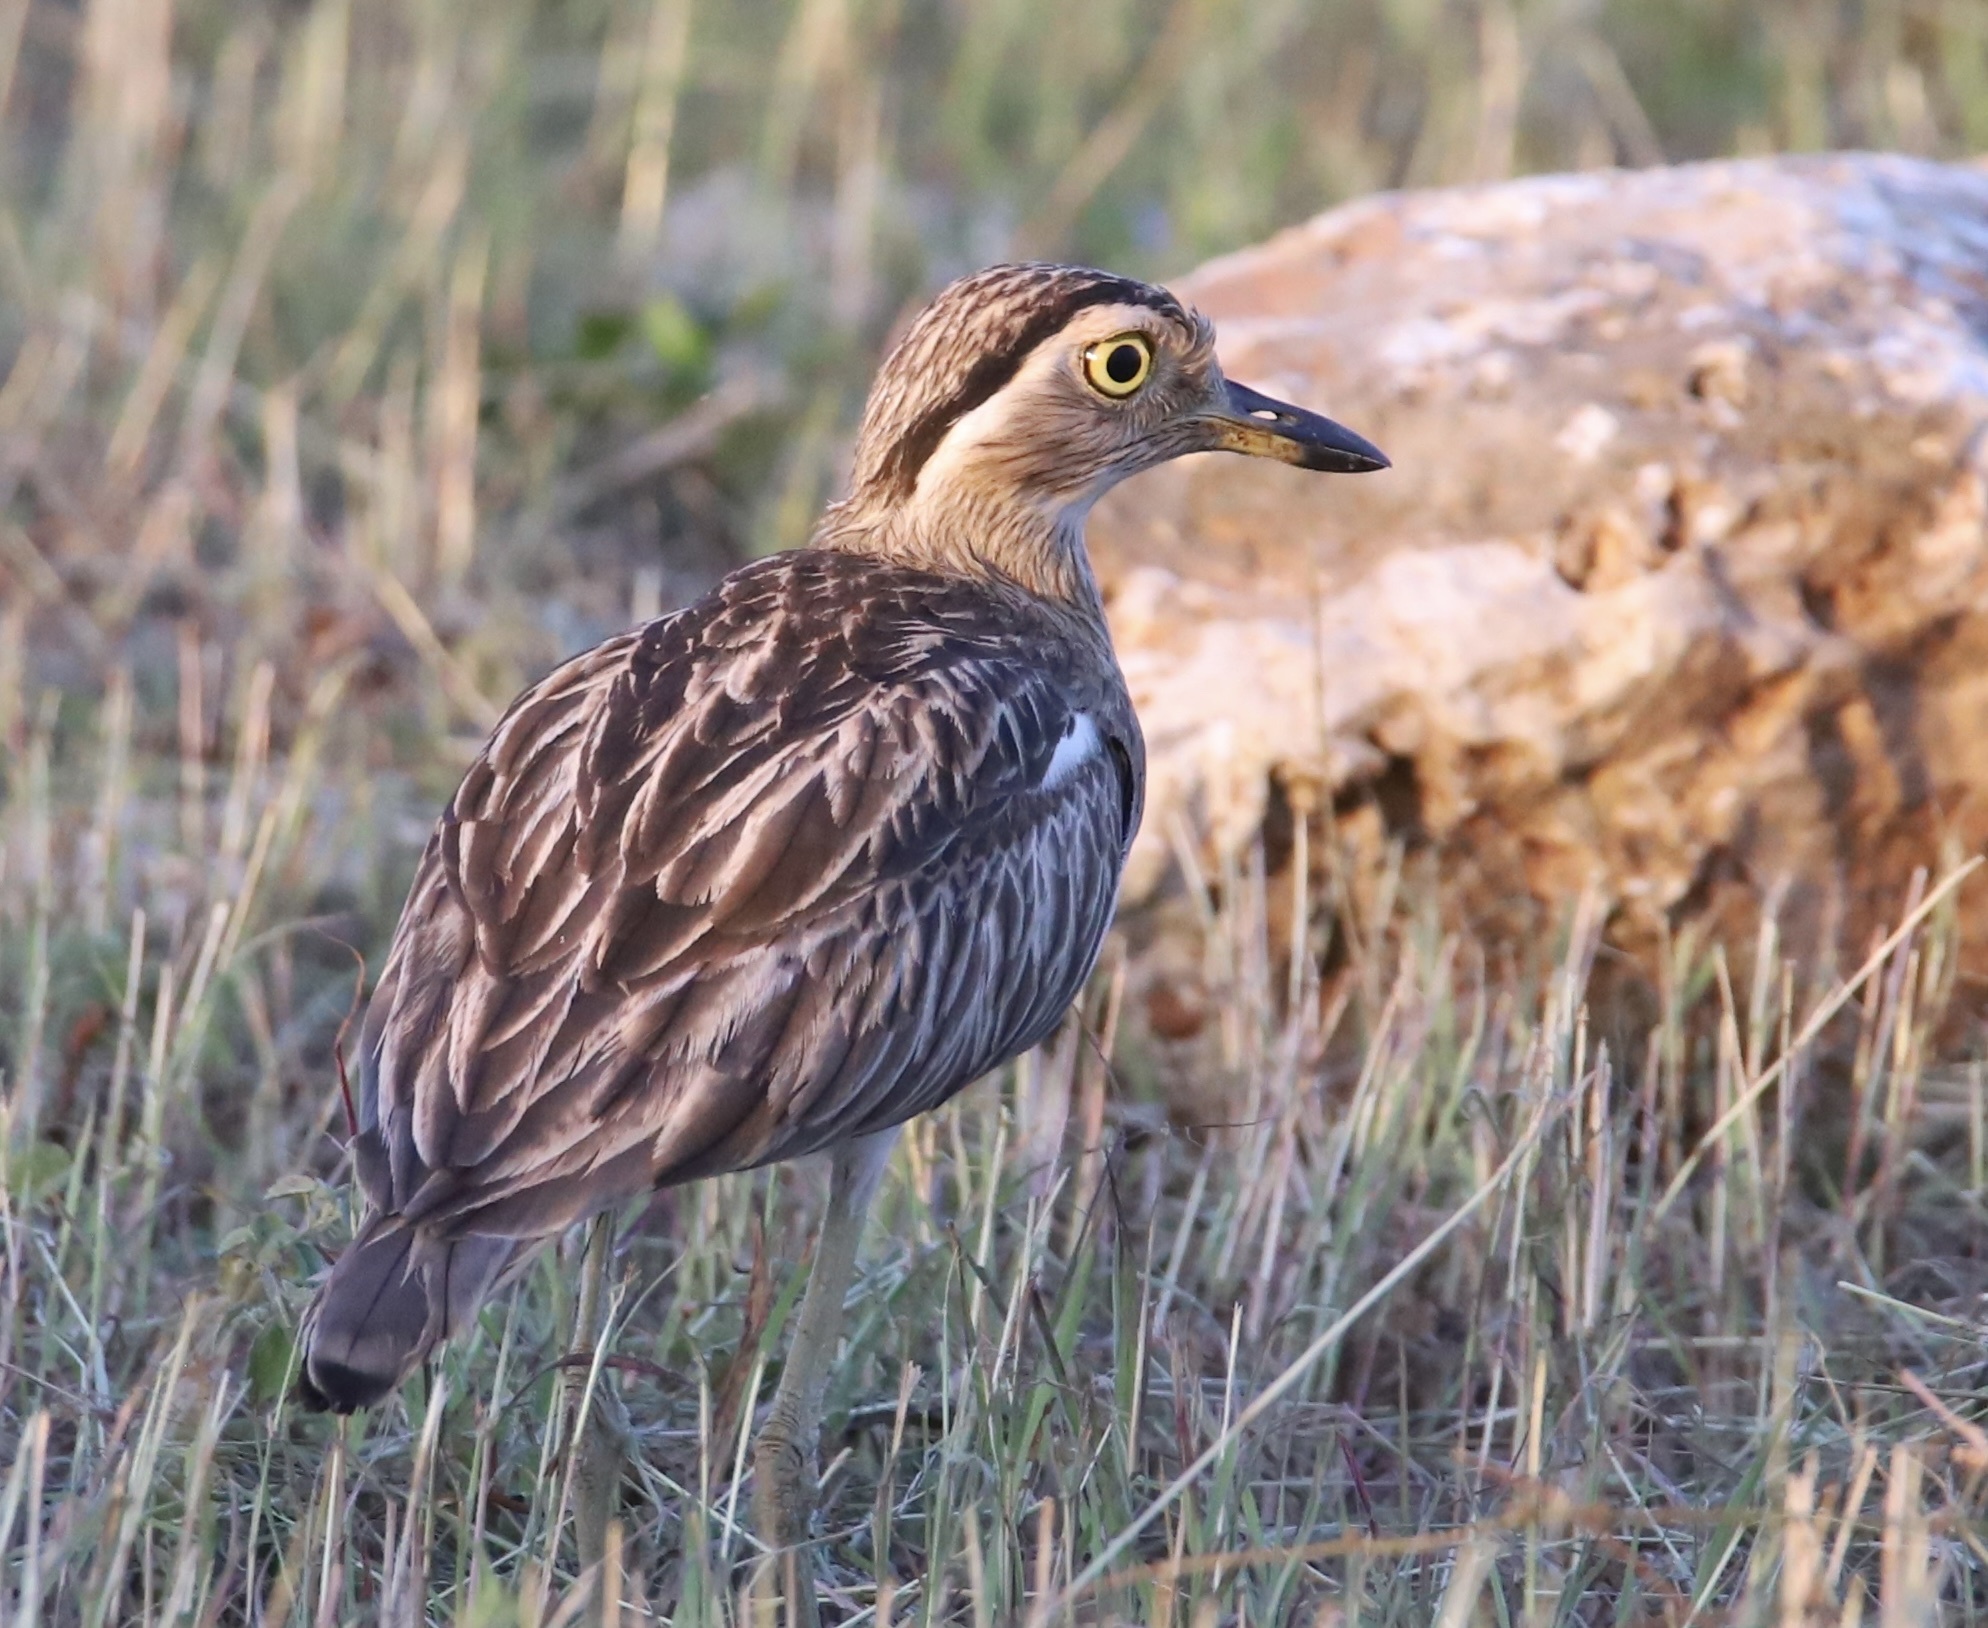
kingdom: Animalia
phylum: Chordata
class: Aves
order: Charadriiformes
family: Burhinidae
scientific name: Burhinidae
